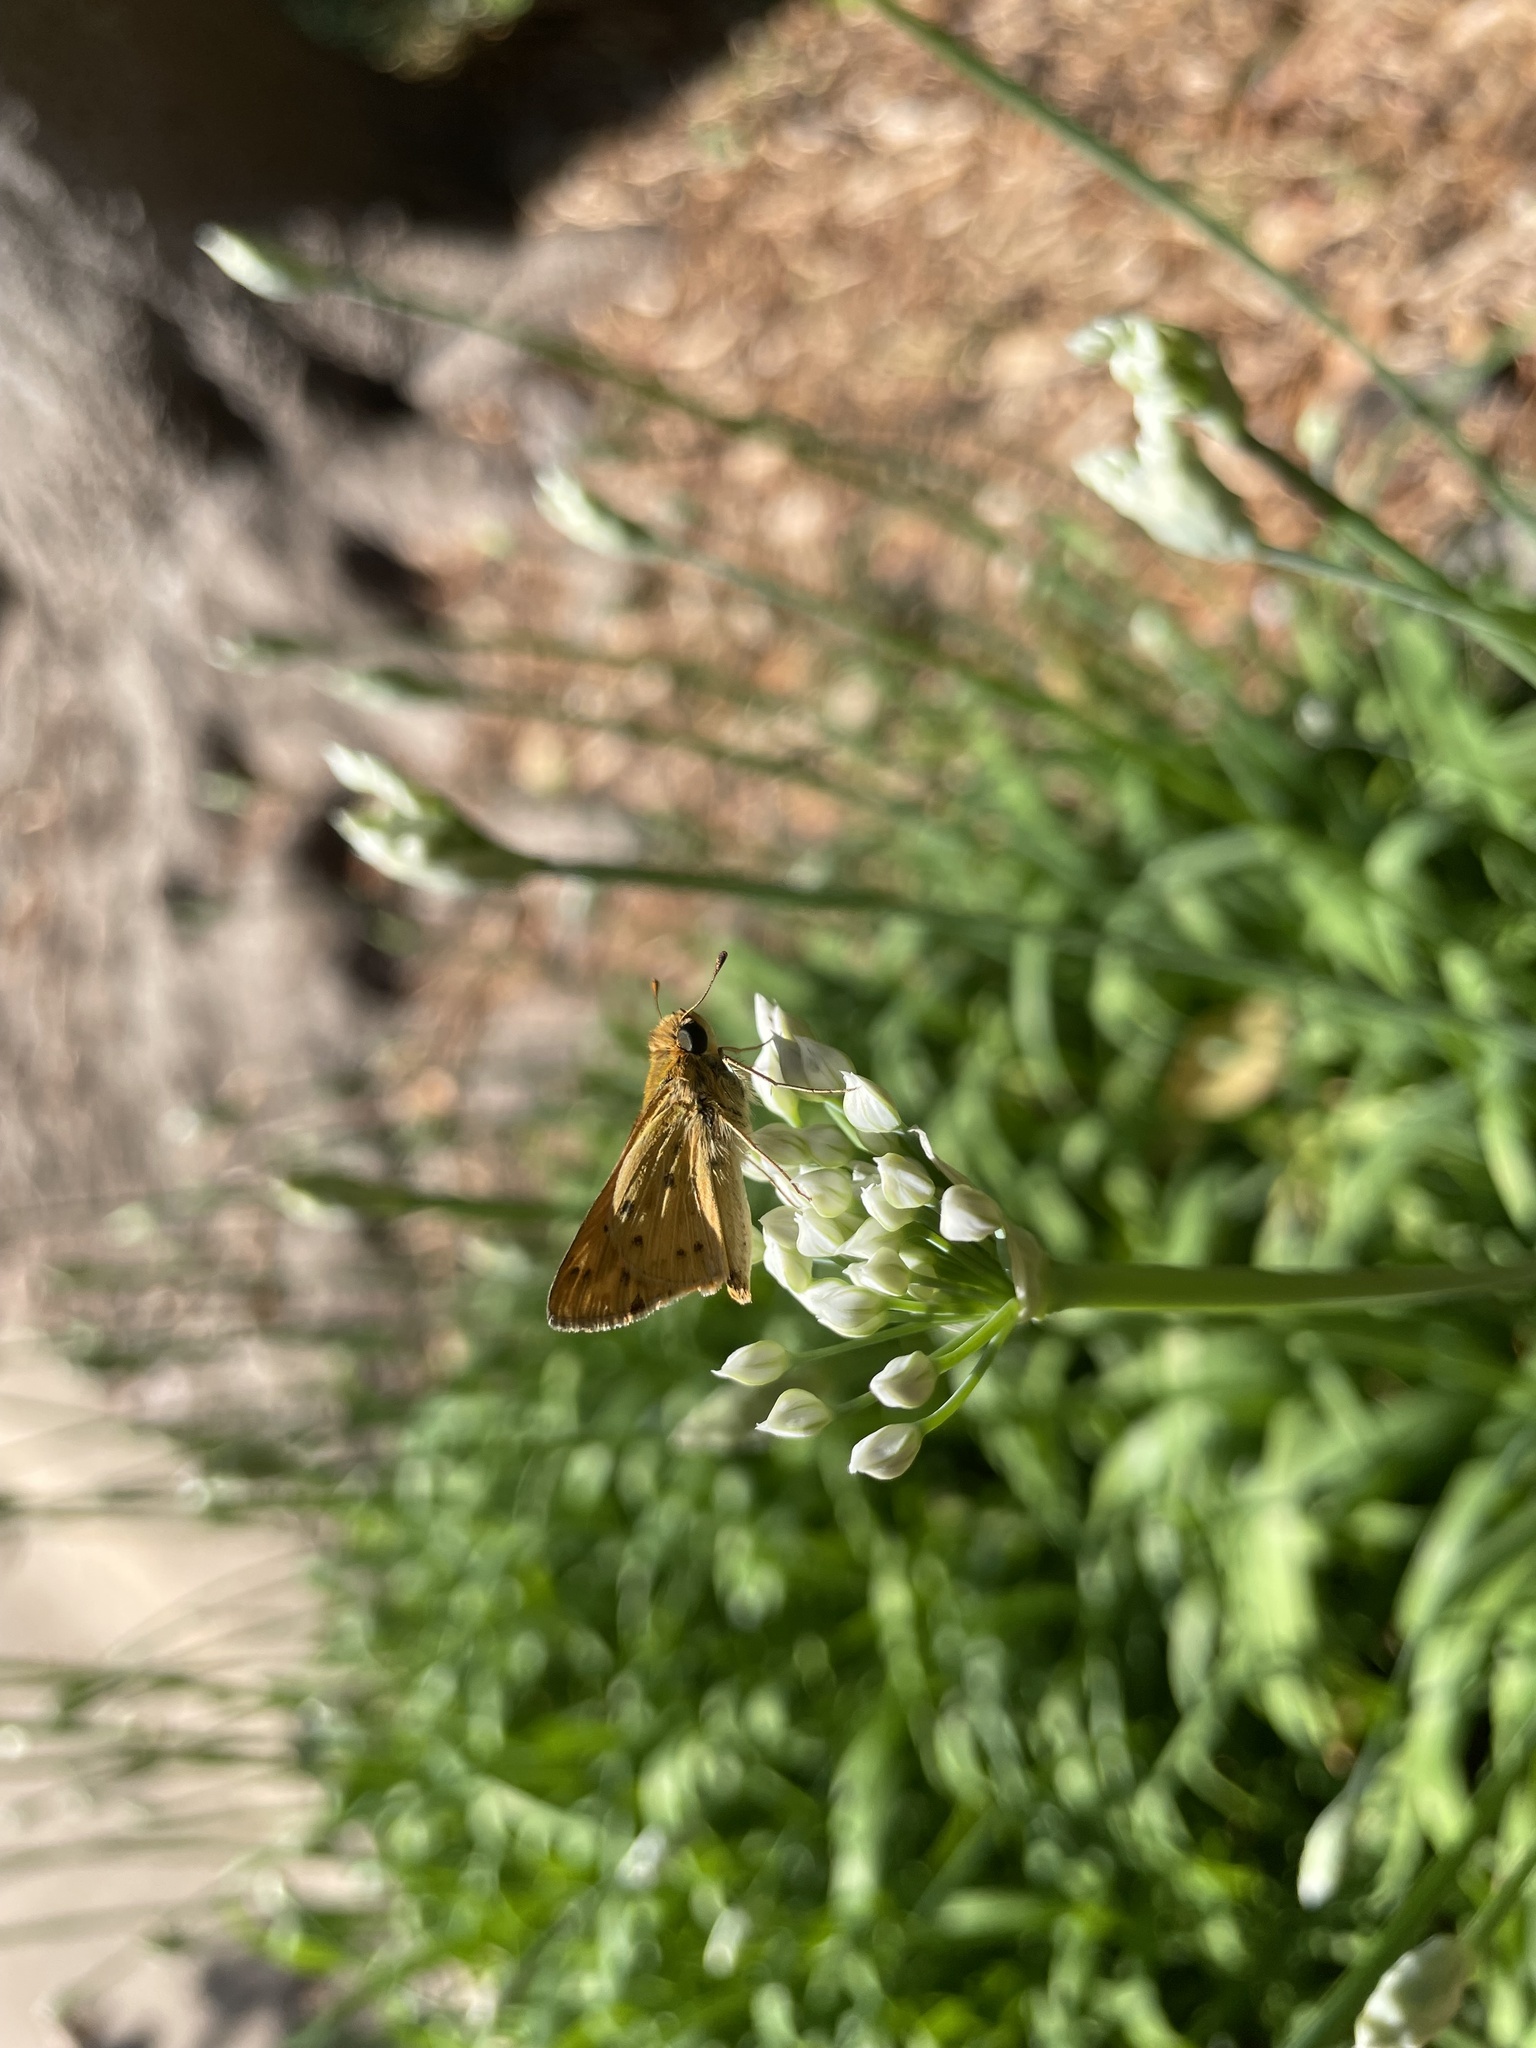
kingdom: Animalia
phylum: Arthropoda
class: Insecta
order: Lepidoptera
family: Hesperiidae
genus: Hylephila
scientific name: Hylephila phyleus
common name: Fiery skipper
